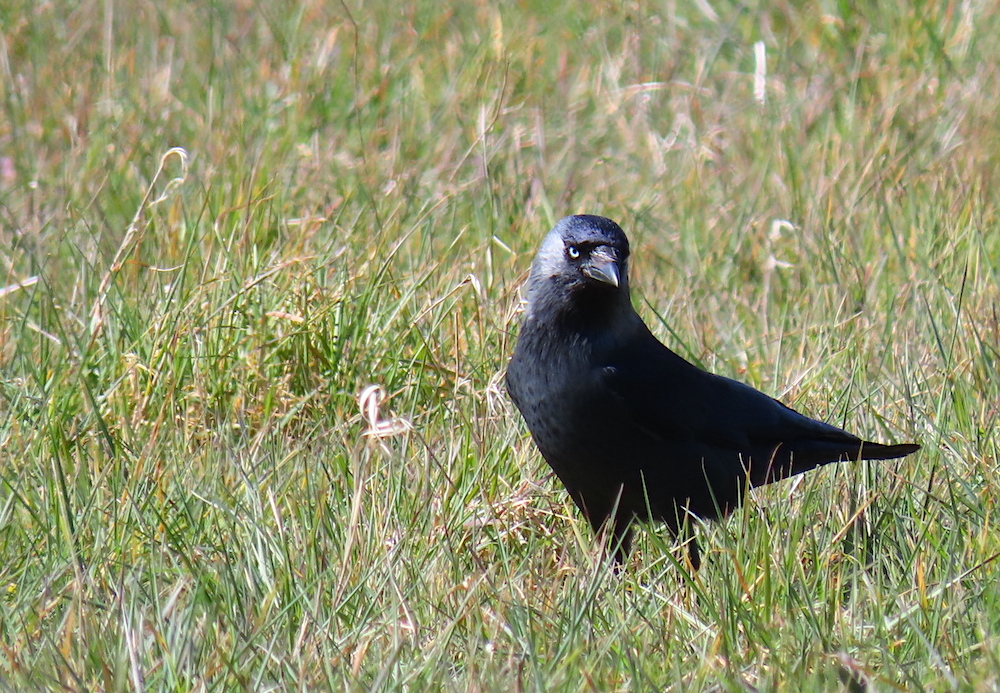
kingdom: Animalia
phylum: Chordata
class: Aves
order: Passeriformes
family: Corvidae
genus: Coloeus
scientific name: Coloeus monedula
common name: Western jackdaw
